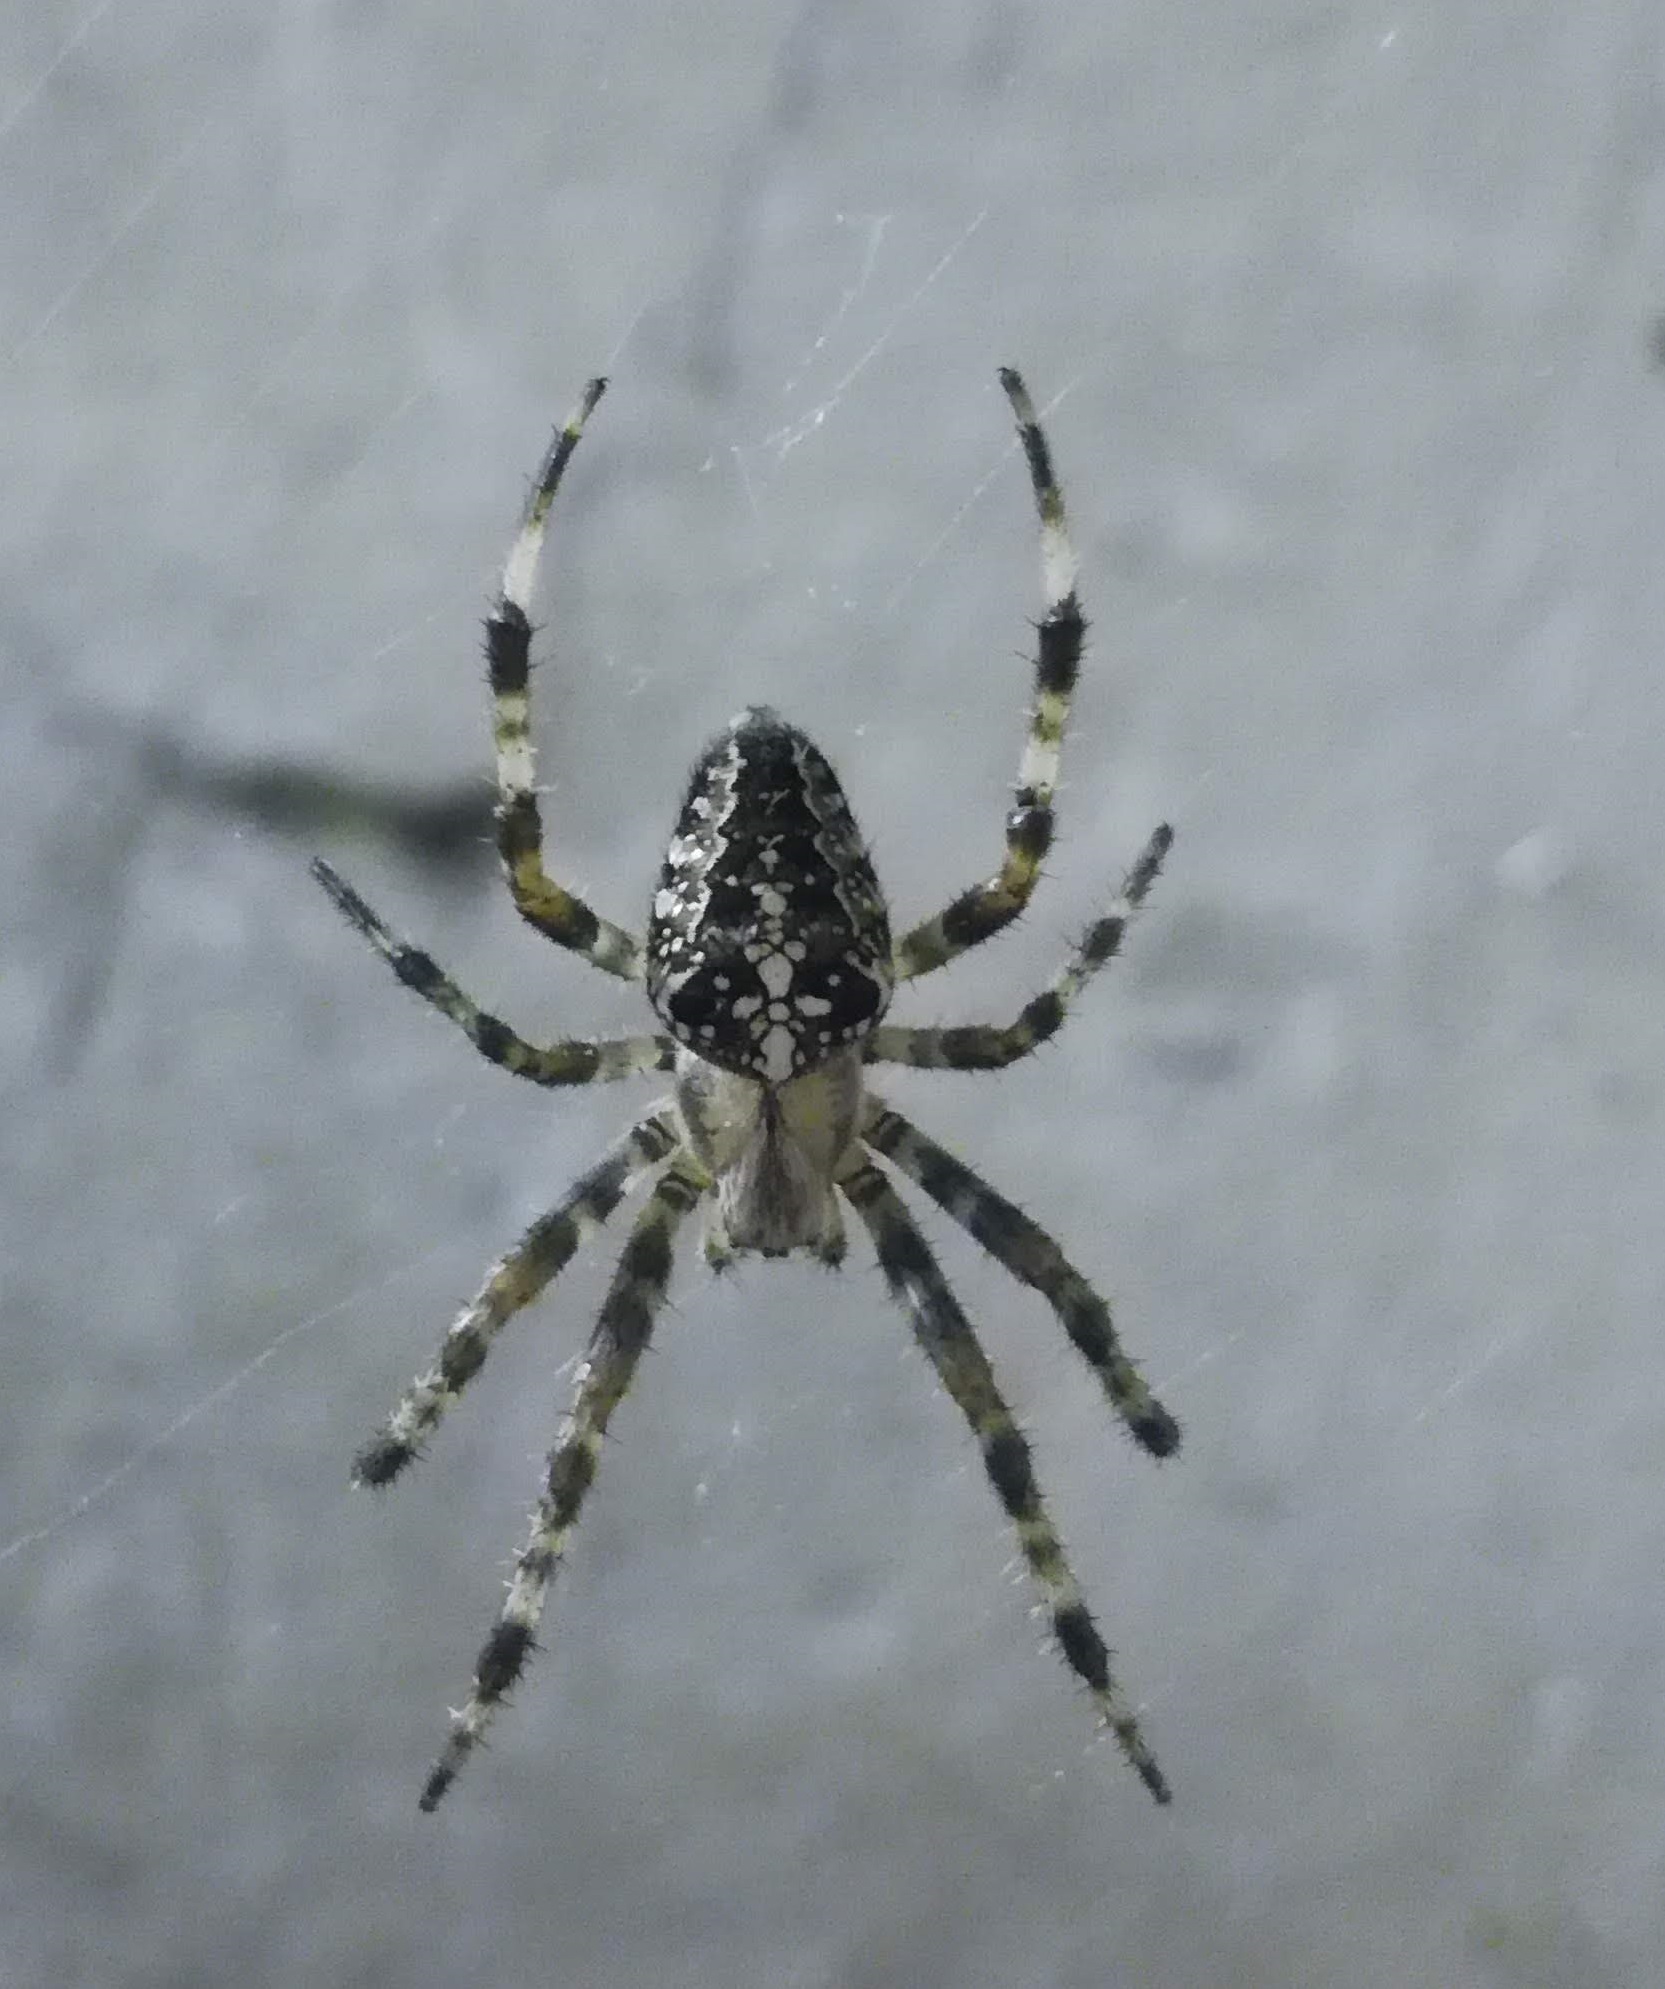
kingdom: Animalia
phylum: Arthropoda
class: Arachnida
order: Araneae
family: Araneidae
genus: Araneus
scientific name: Araneus diadematus
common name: Cross orbweaver
